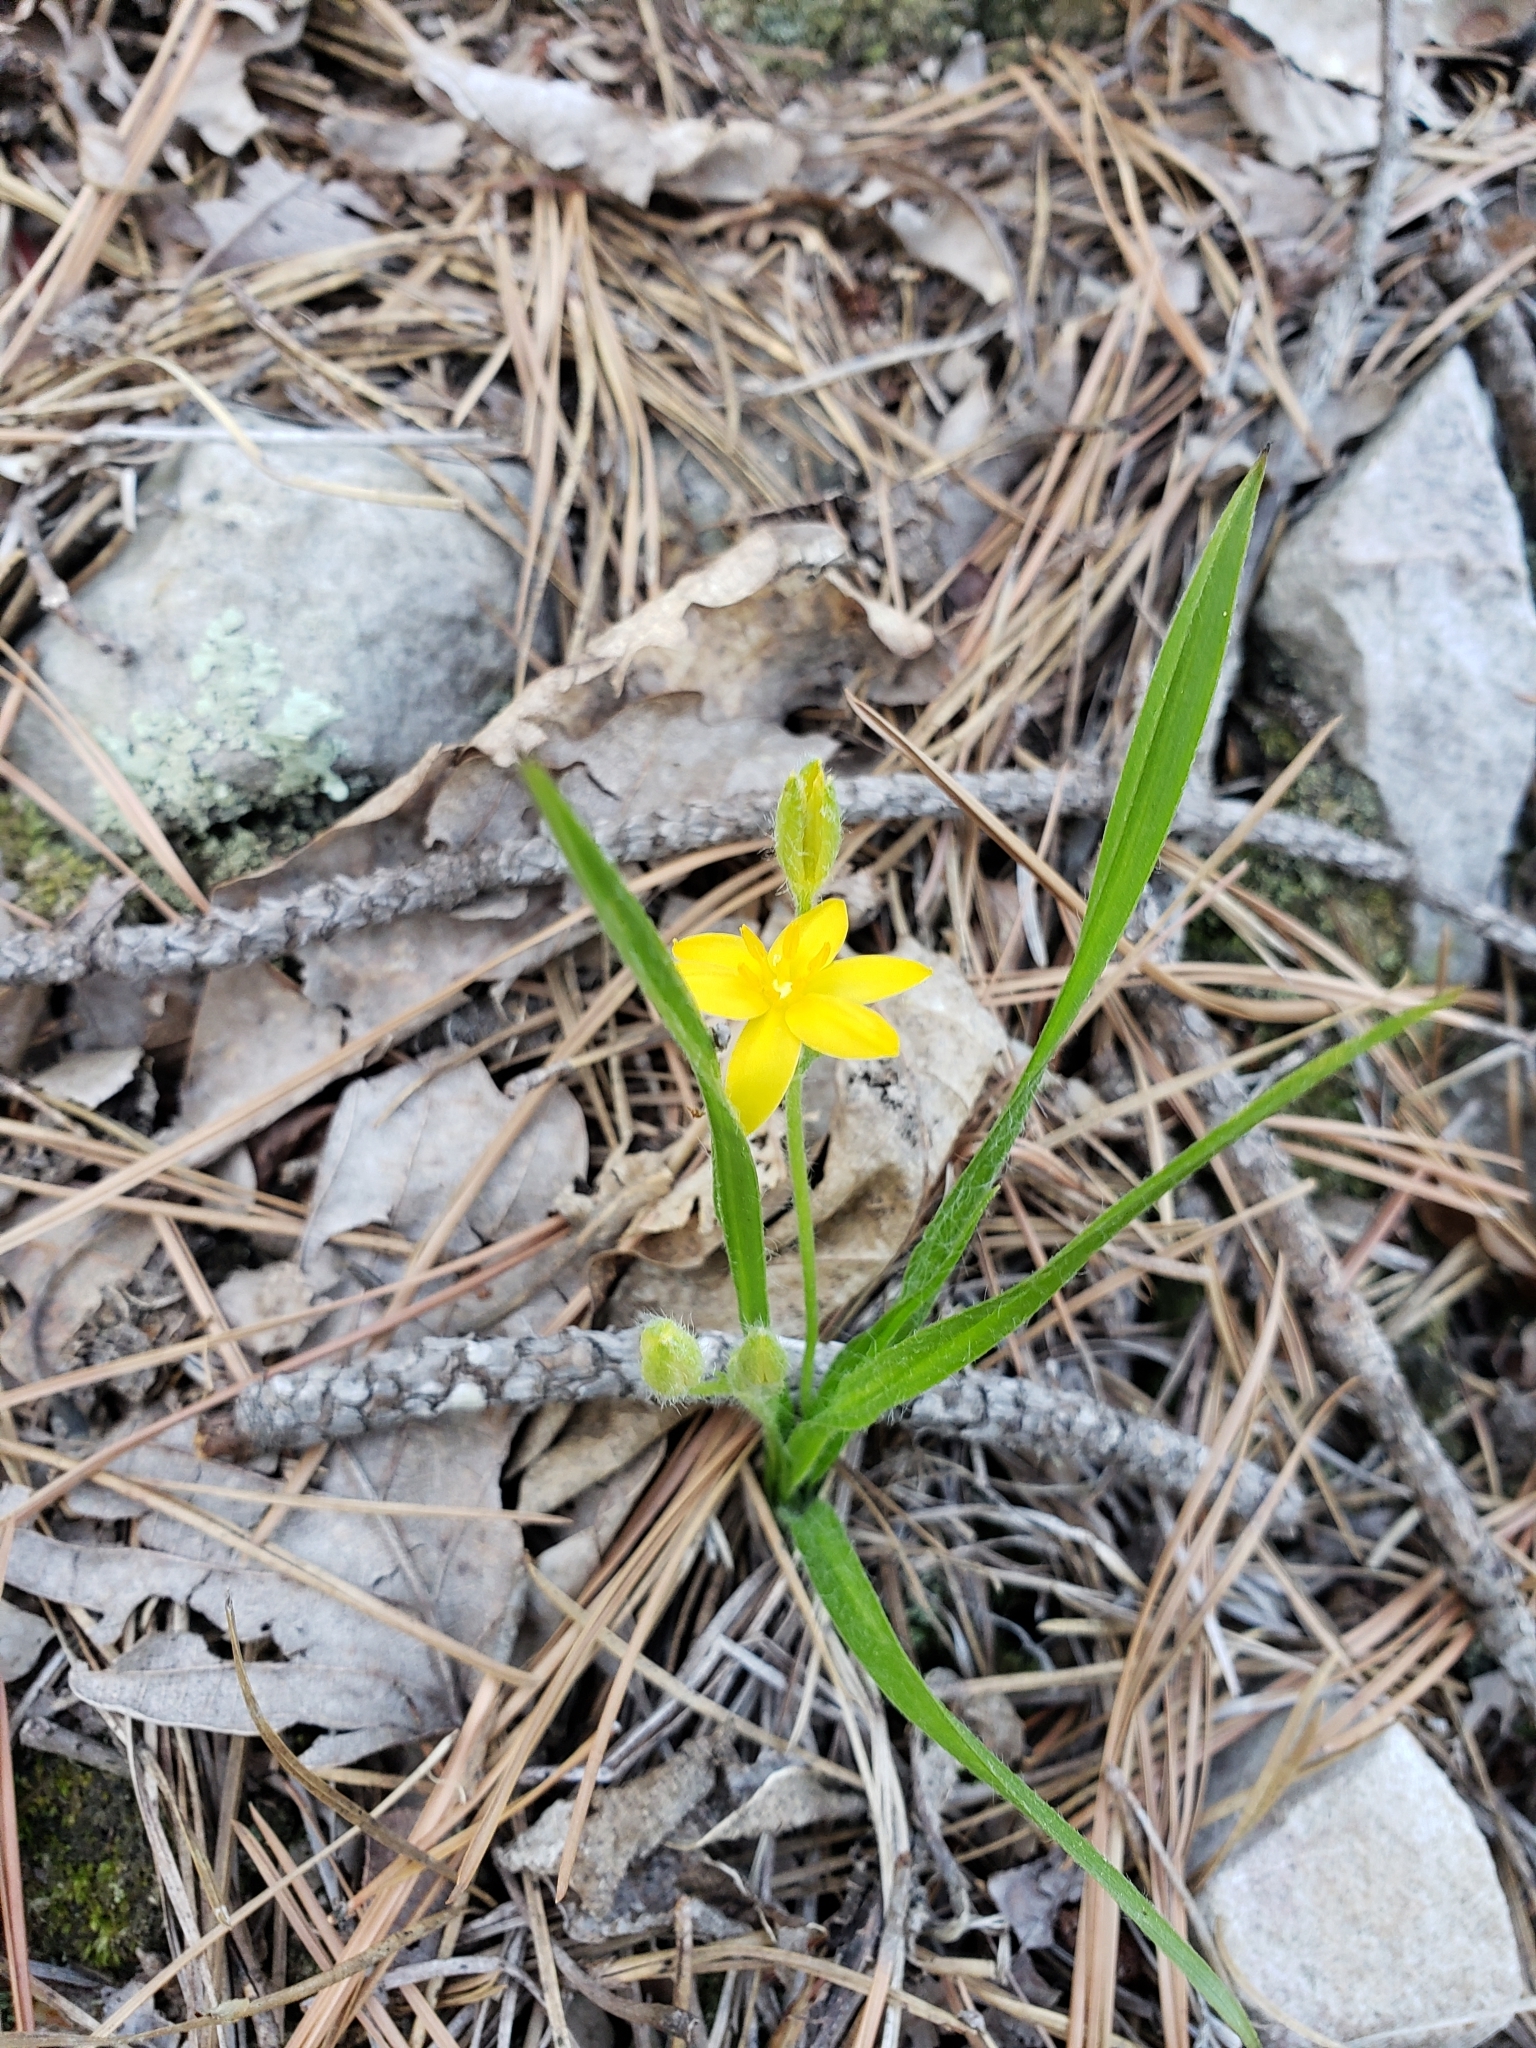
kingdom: Plantae
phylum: Tracheophyta
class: Liliopsida
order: Asparagales
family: Hypoxidaceae
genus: Hypoxis
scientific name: Hypoxis hirsuta
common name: Common goldstar
